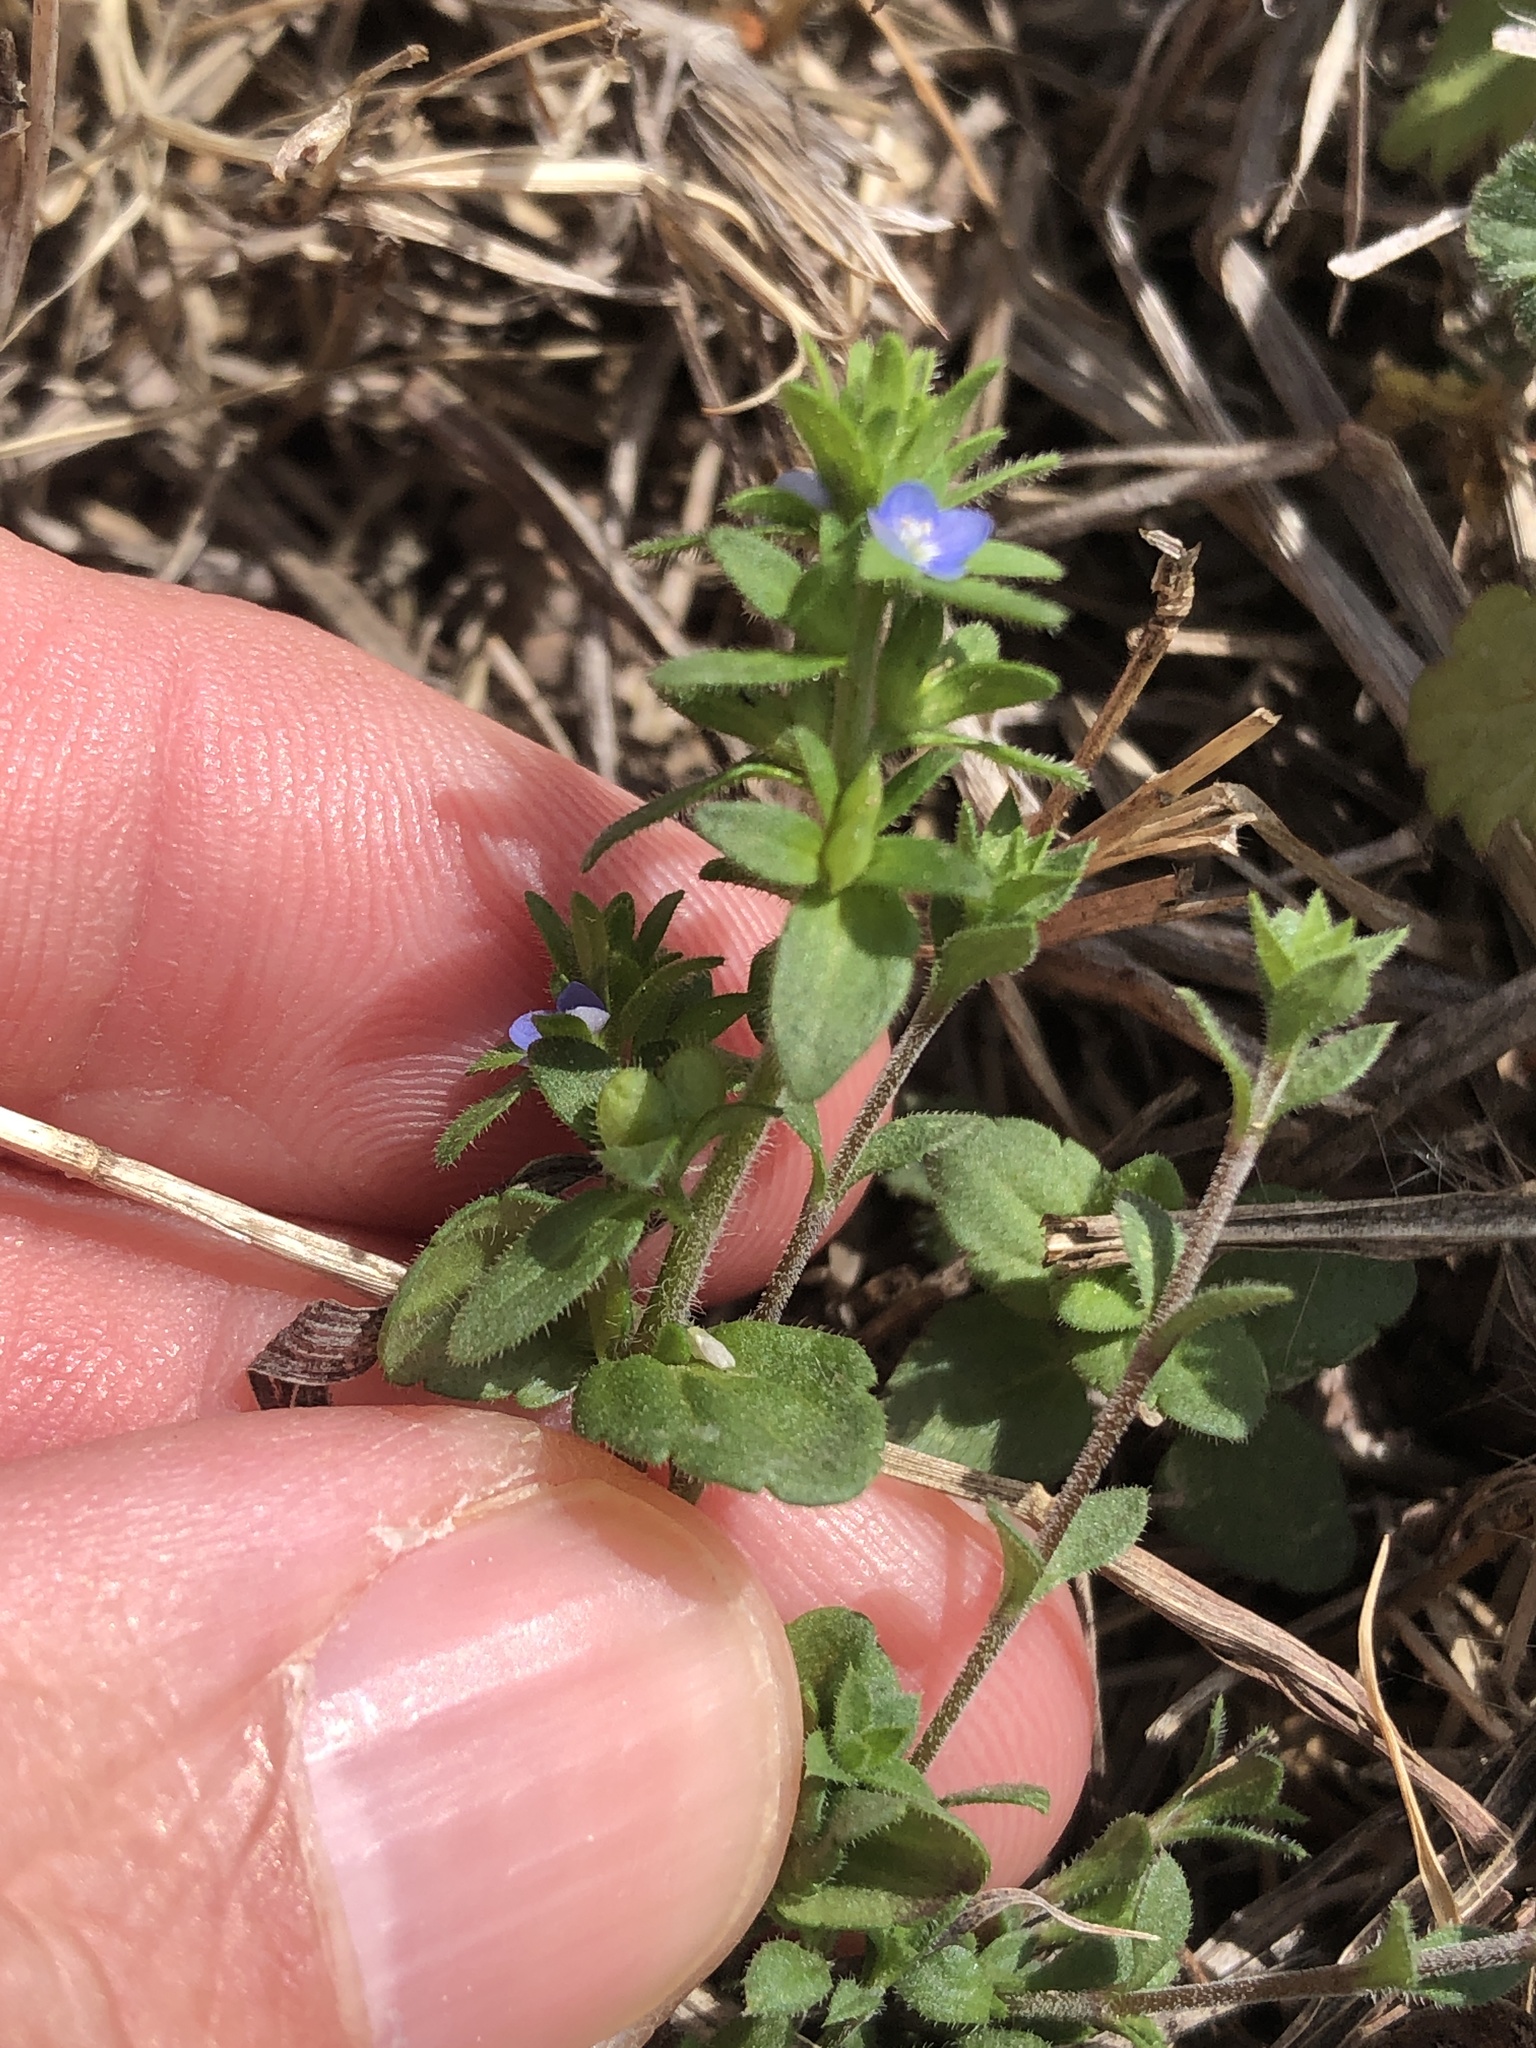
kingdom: Plantae
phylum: Tracheophyta
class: Magnoliopsida
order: Lamiales
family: Plantaginaceae
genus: Veronica
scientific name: Veronica arvensis
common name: Corn speedwell
